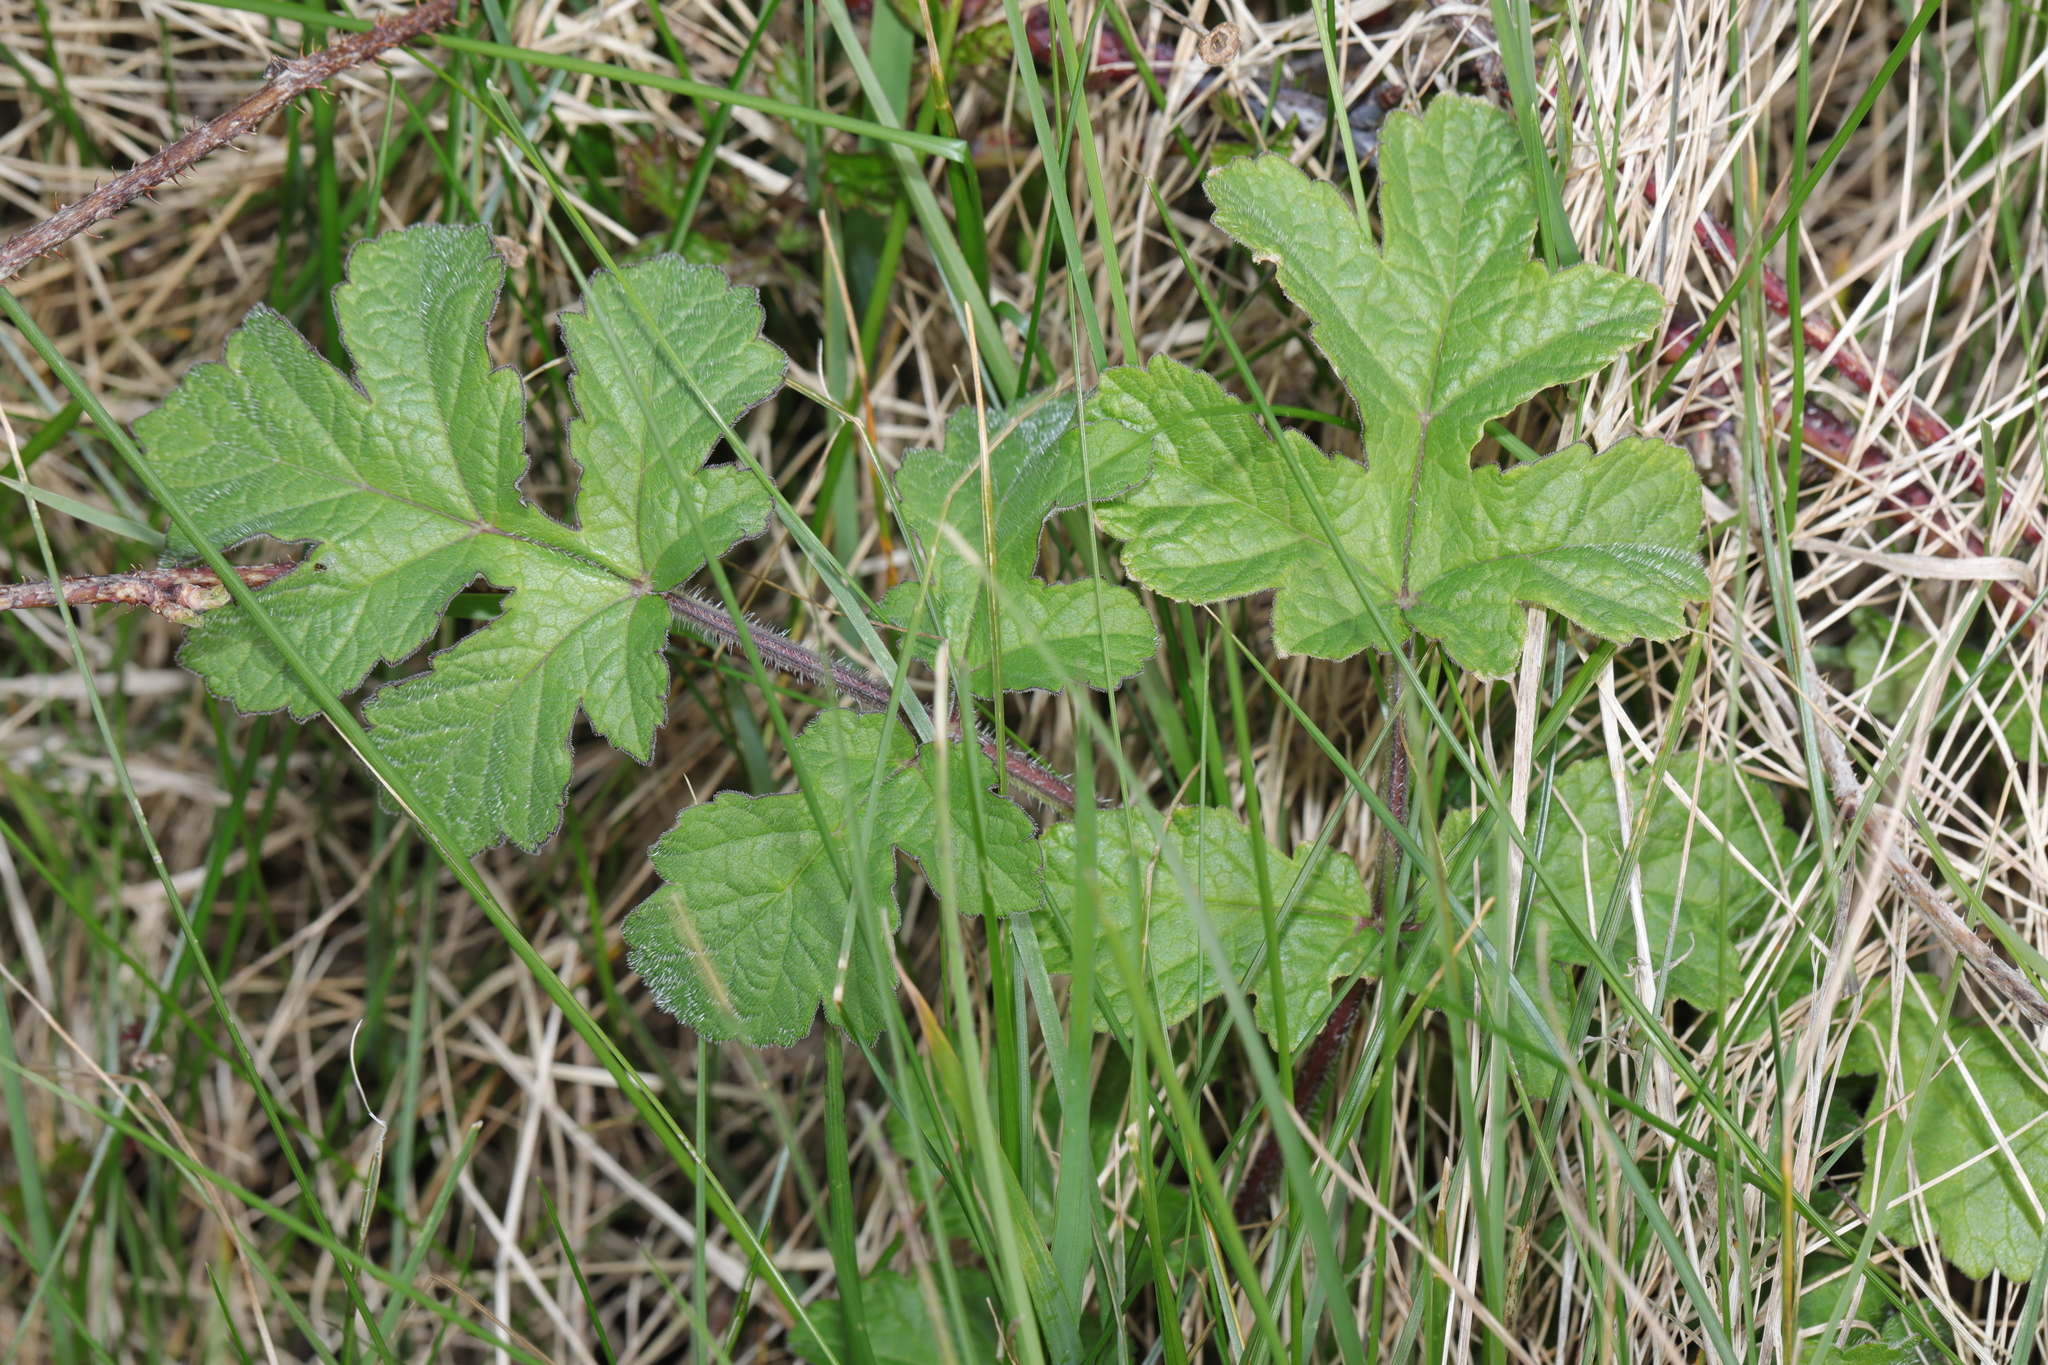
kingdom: Plantae
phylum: Tracheophyta
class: Magnoliopsida
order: Apiales
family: Apiaceae
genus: Heracleum
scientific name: Heracleum sphondylium
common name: Hogweed
